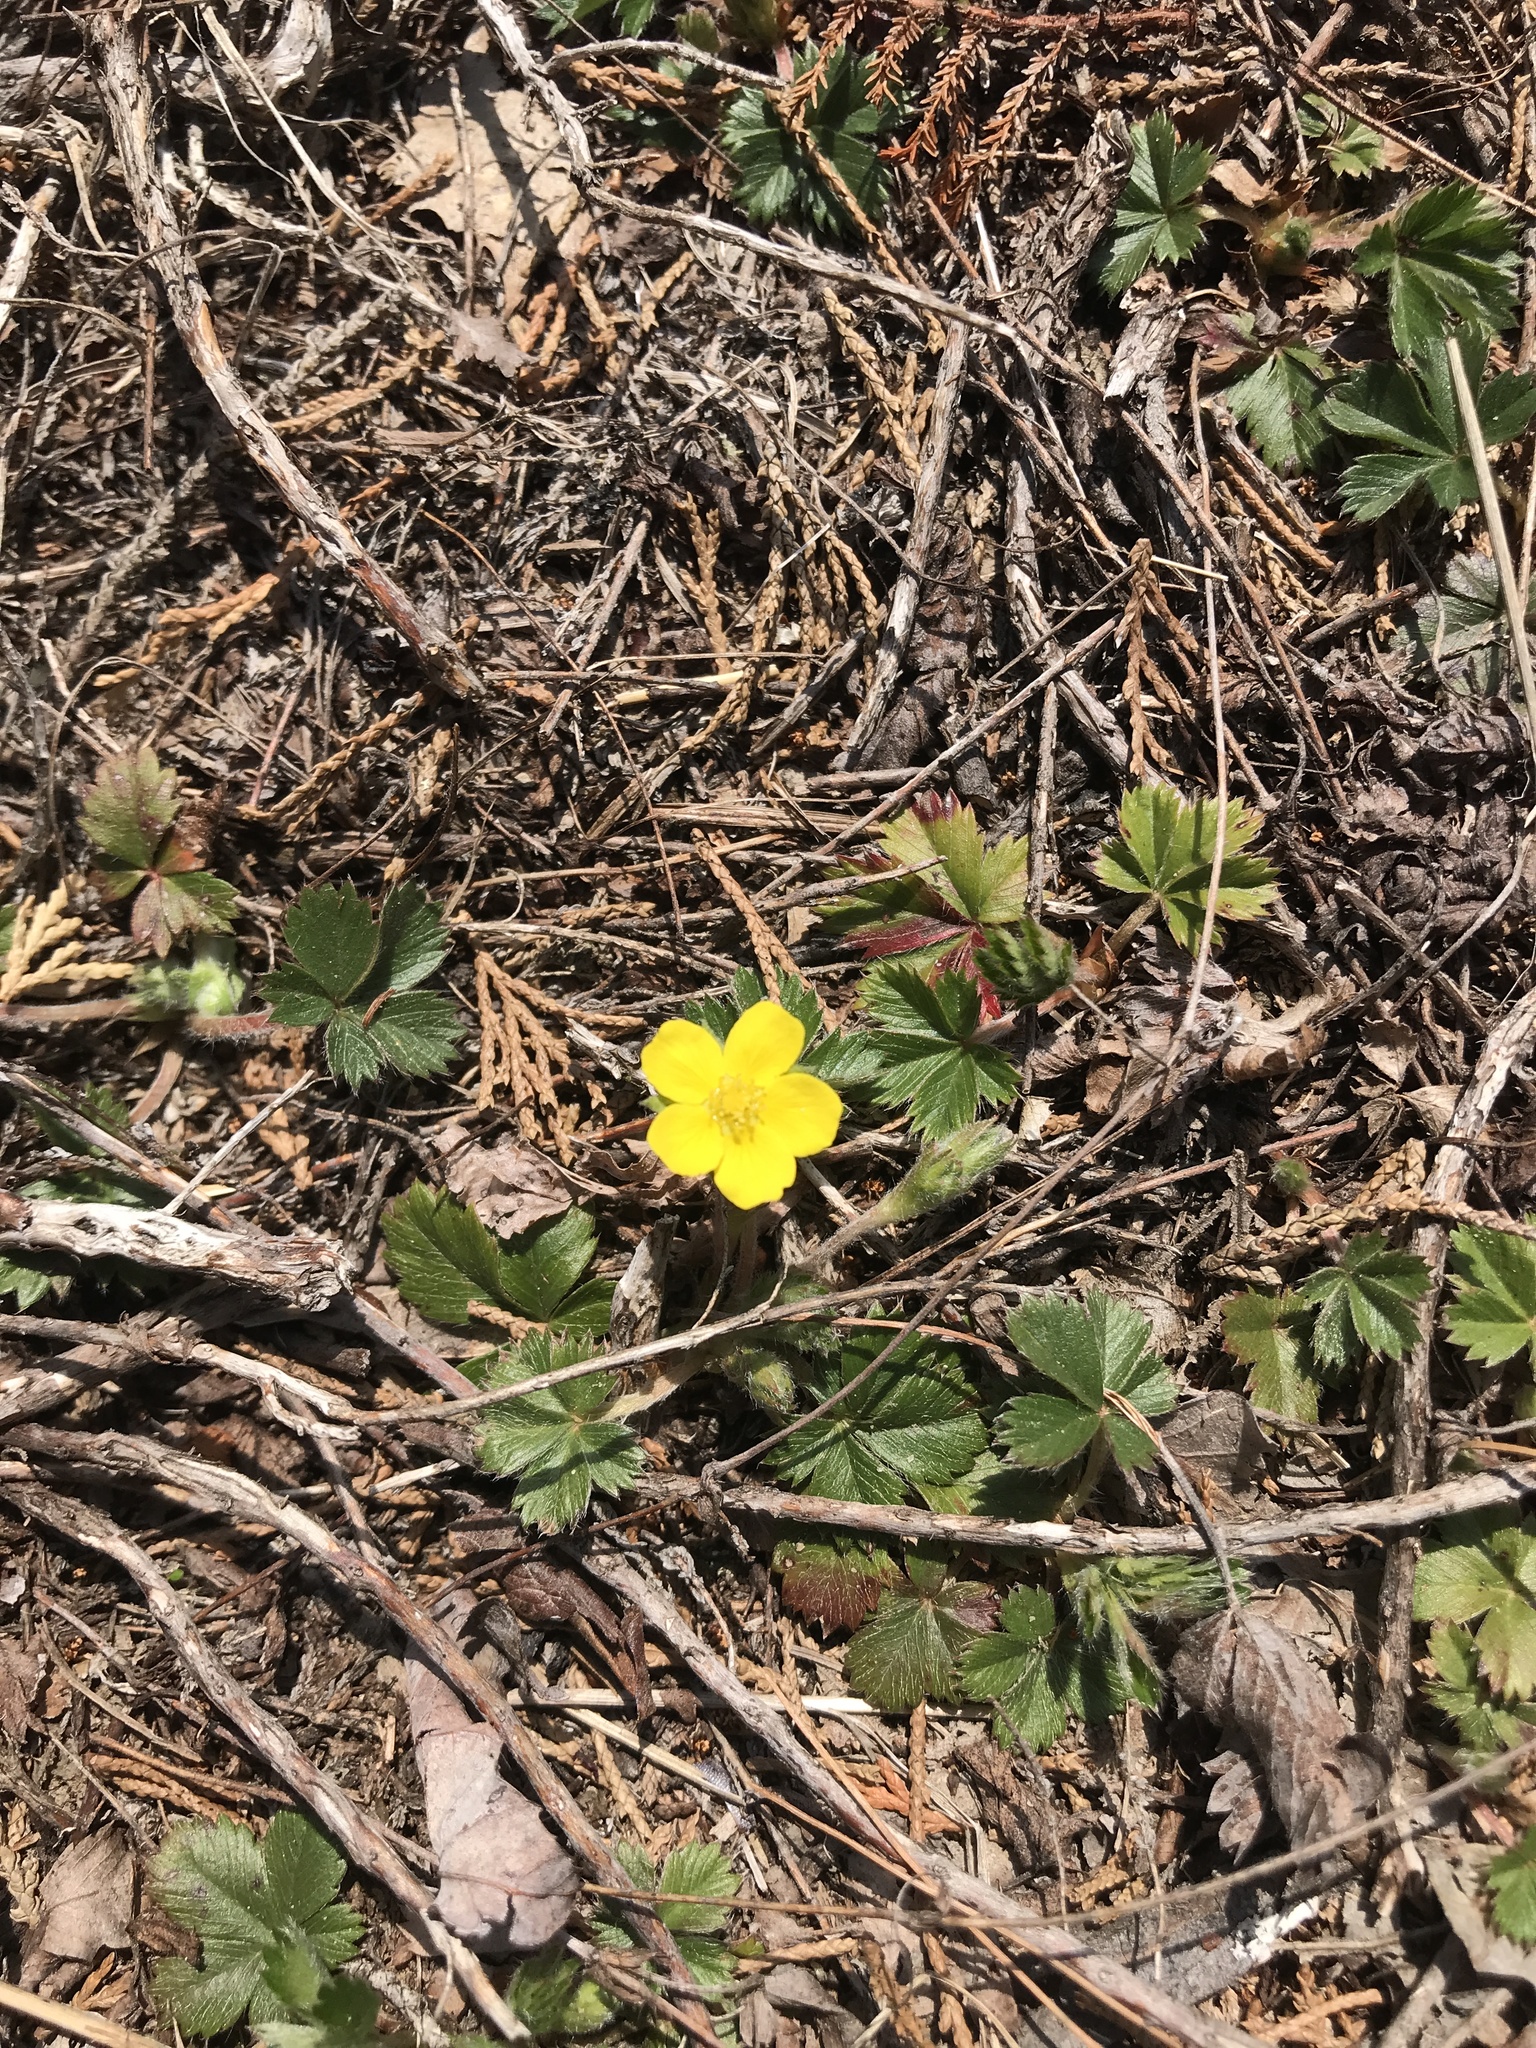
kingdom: Plantae
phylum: Tracheophyta
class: Magnoliopsida
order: Rosales
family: Rosaceae
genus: Potentilla
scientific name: Potentilla canadensis
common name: Canada cinquefoil
